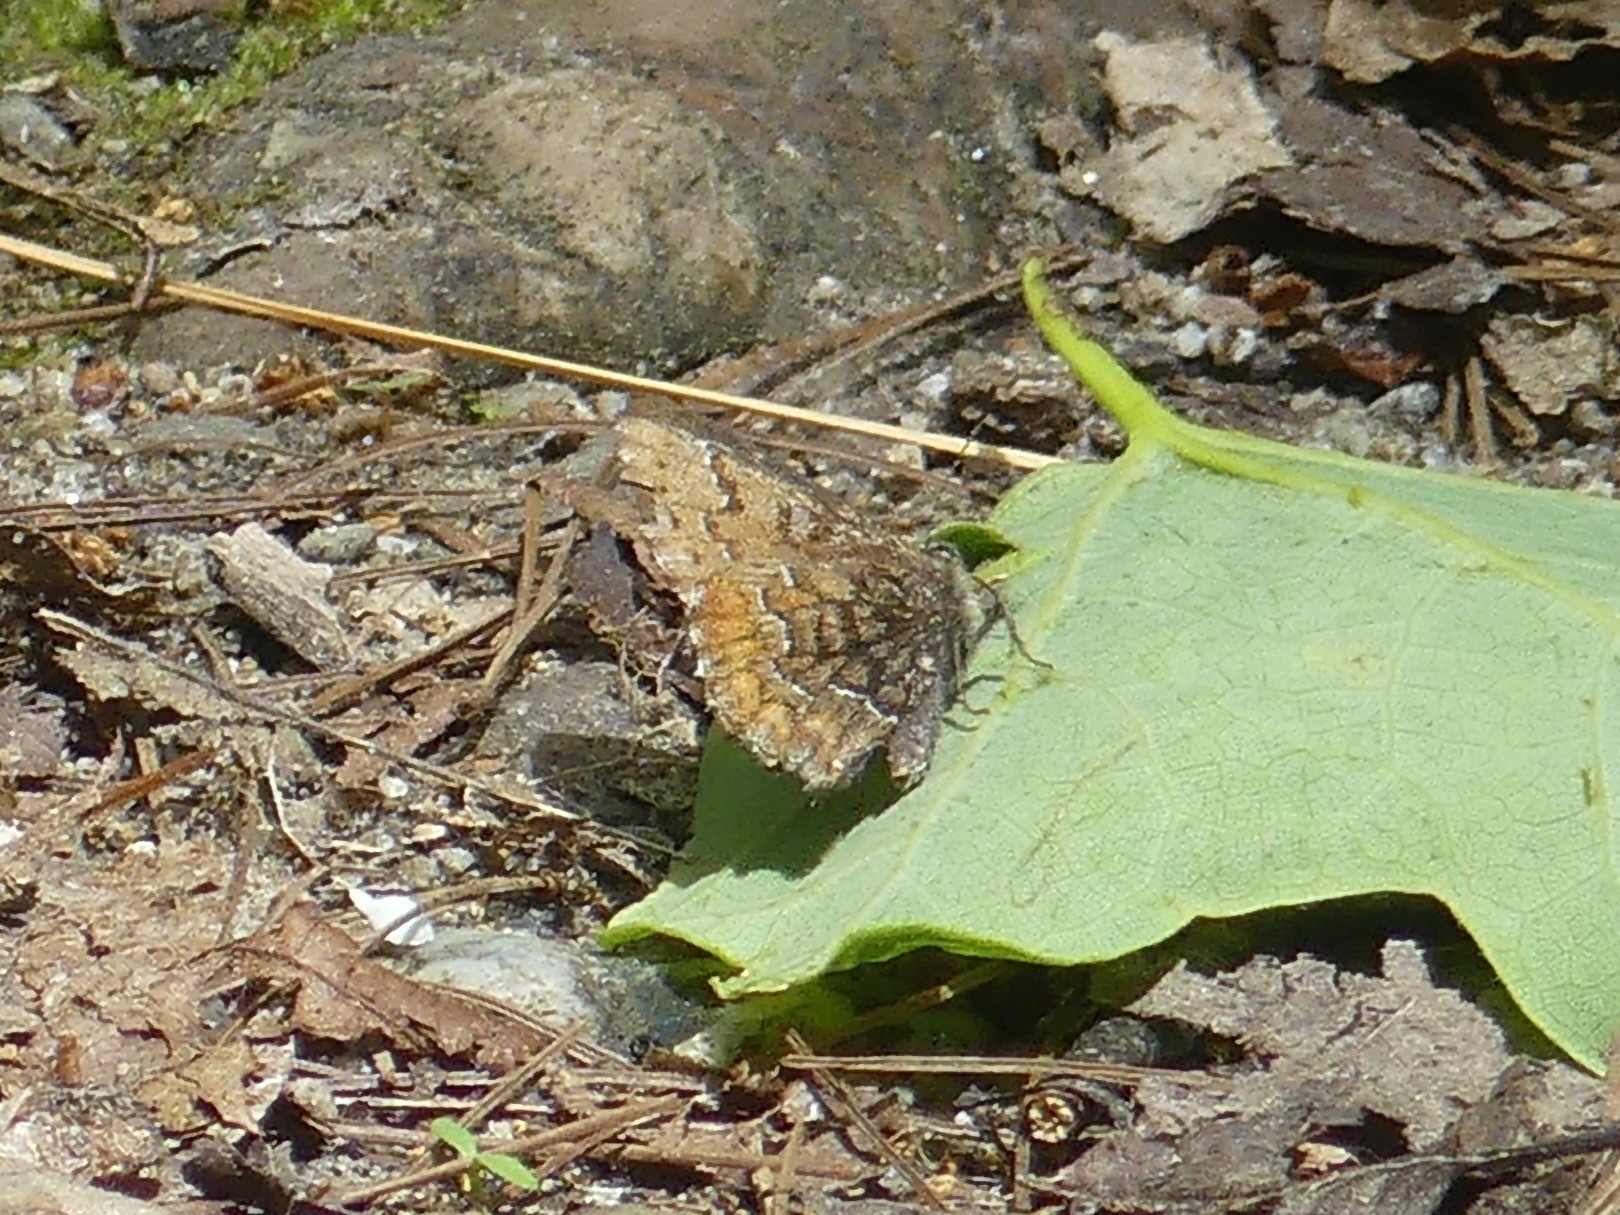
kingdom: Animalia
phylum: Arthropoda
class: Insecta
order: Lepidoptera
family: Lycaenidae
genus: Incisalia
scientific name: Incisalia niphon
